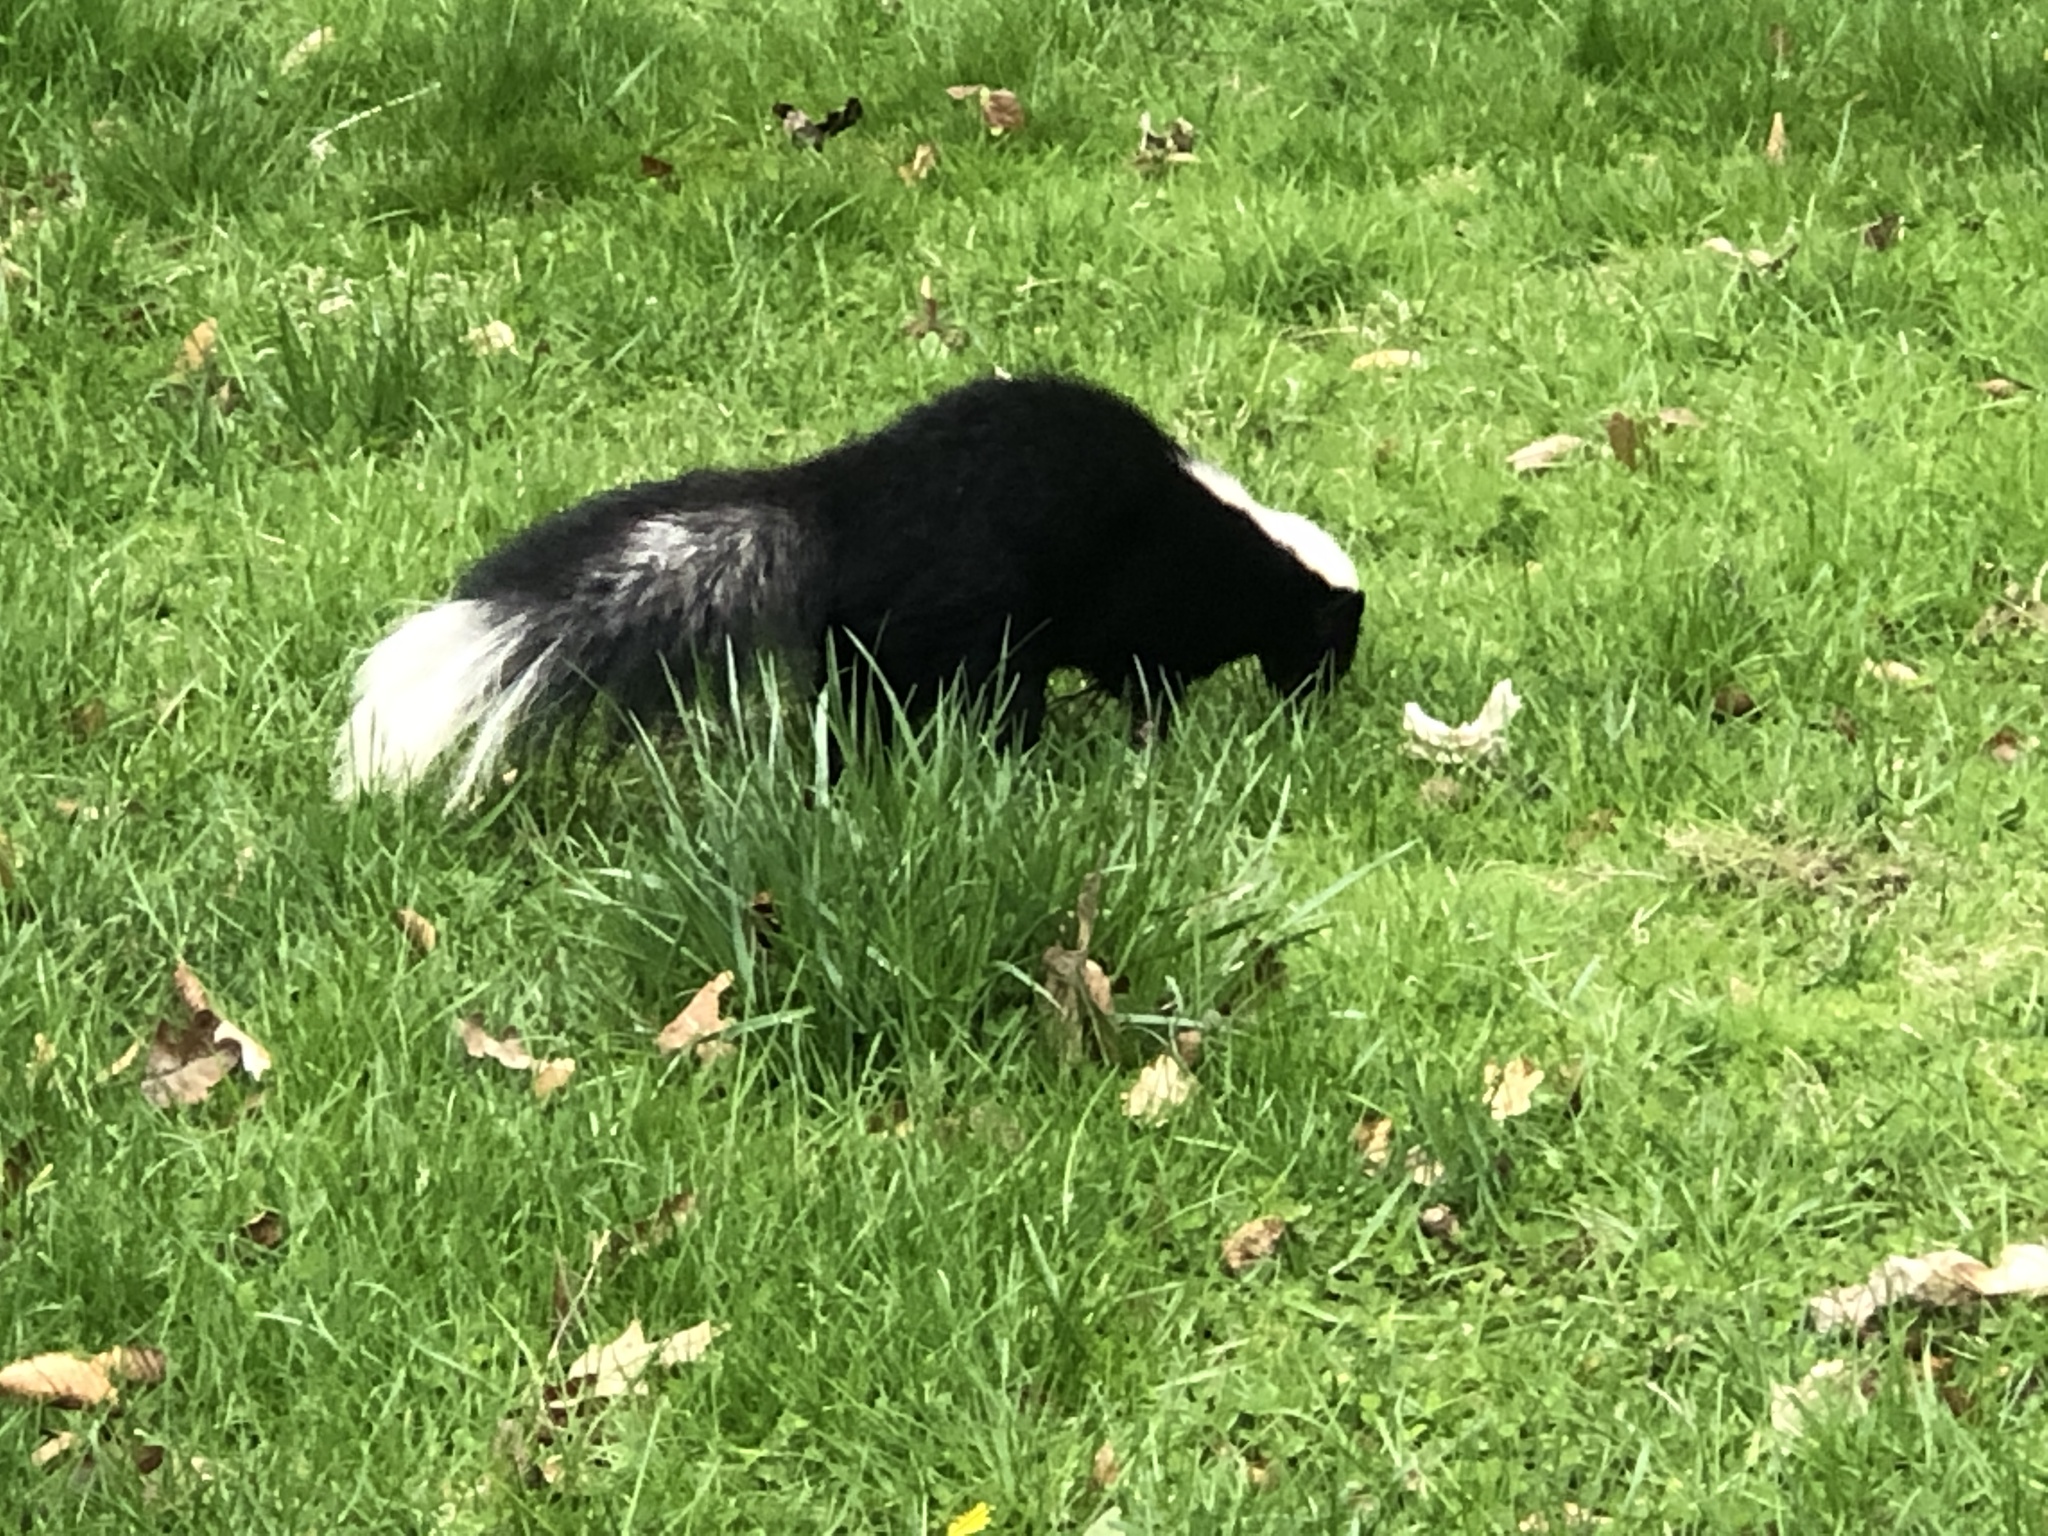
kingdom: Animalia
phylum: Chordata
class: Mammalia
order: Carnivora
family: Mephitidae
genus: Mephitis
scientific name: Mephitis mephitis
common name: Striped skunk
